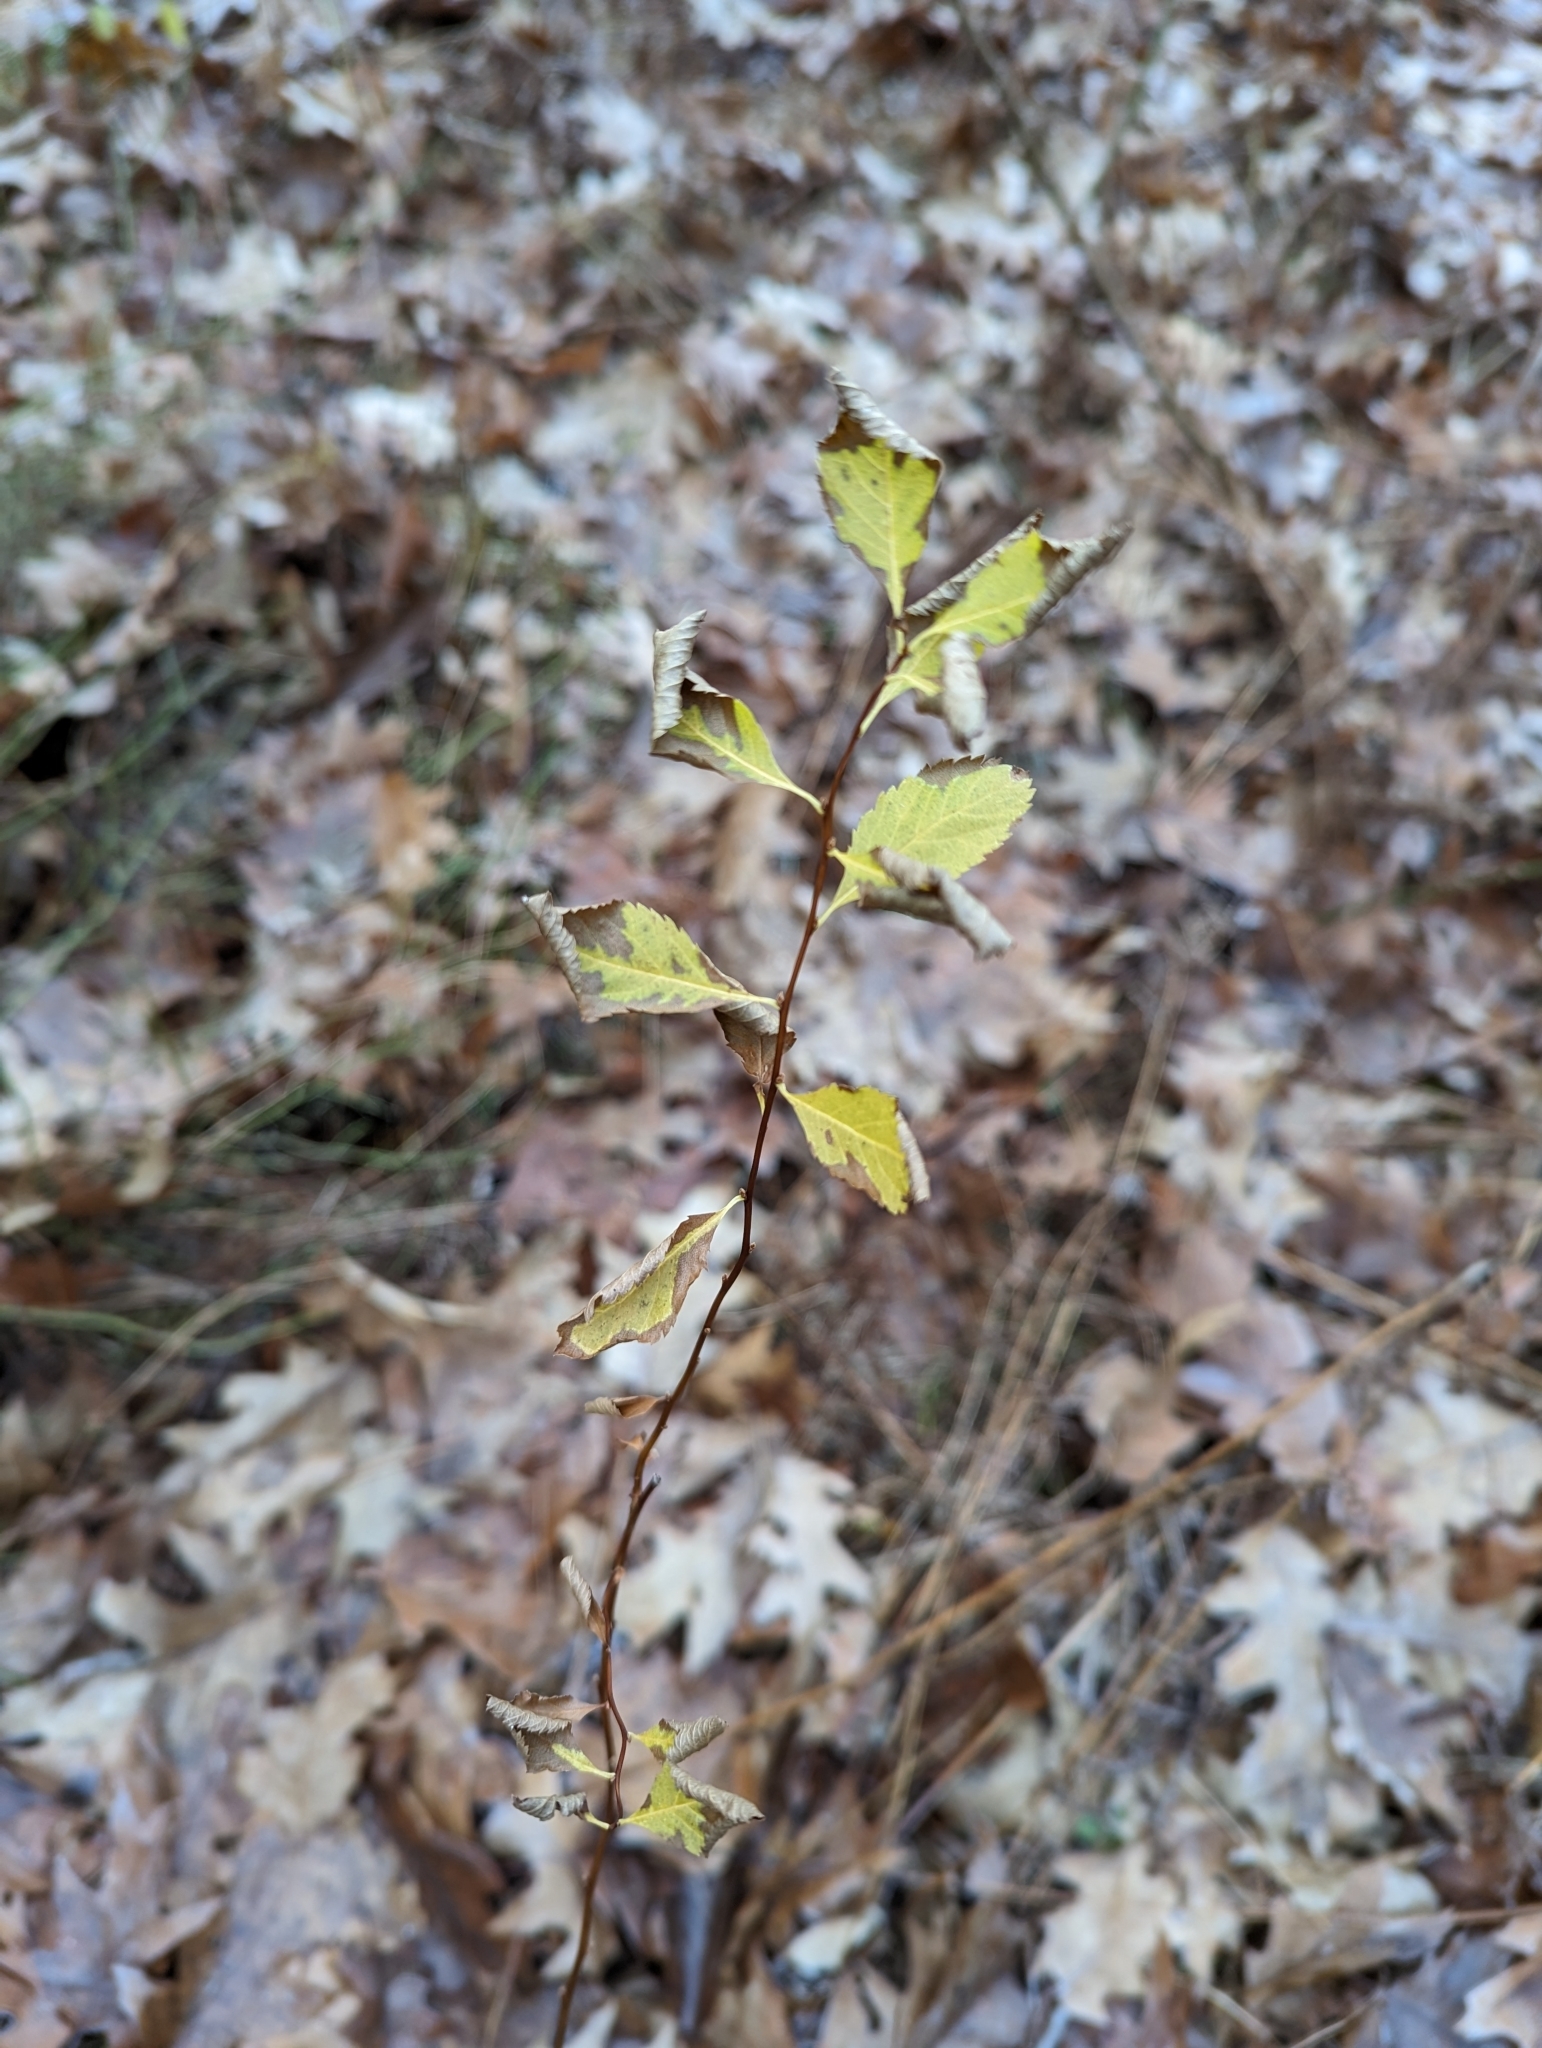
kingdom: Plantae
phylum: Tracheophyta
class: Magnoliopsida
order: Rosales
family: Rosaceae
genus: Spiraea
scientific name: Spiraea alba
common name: Pale bridewort
